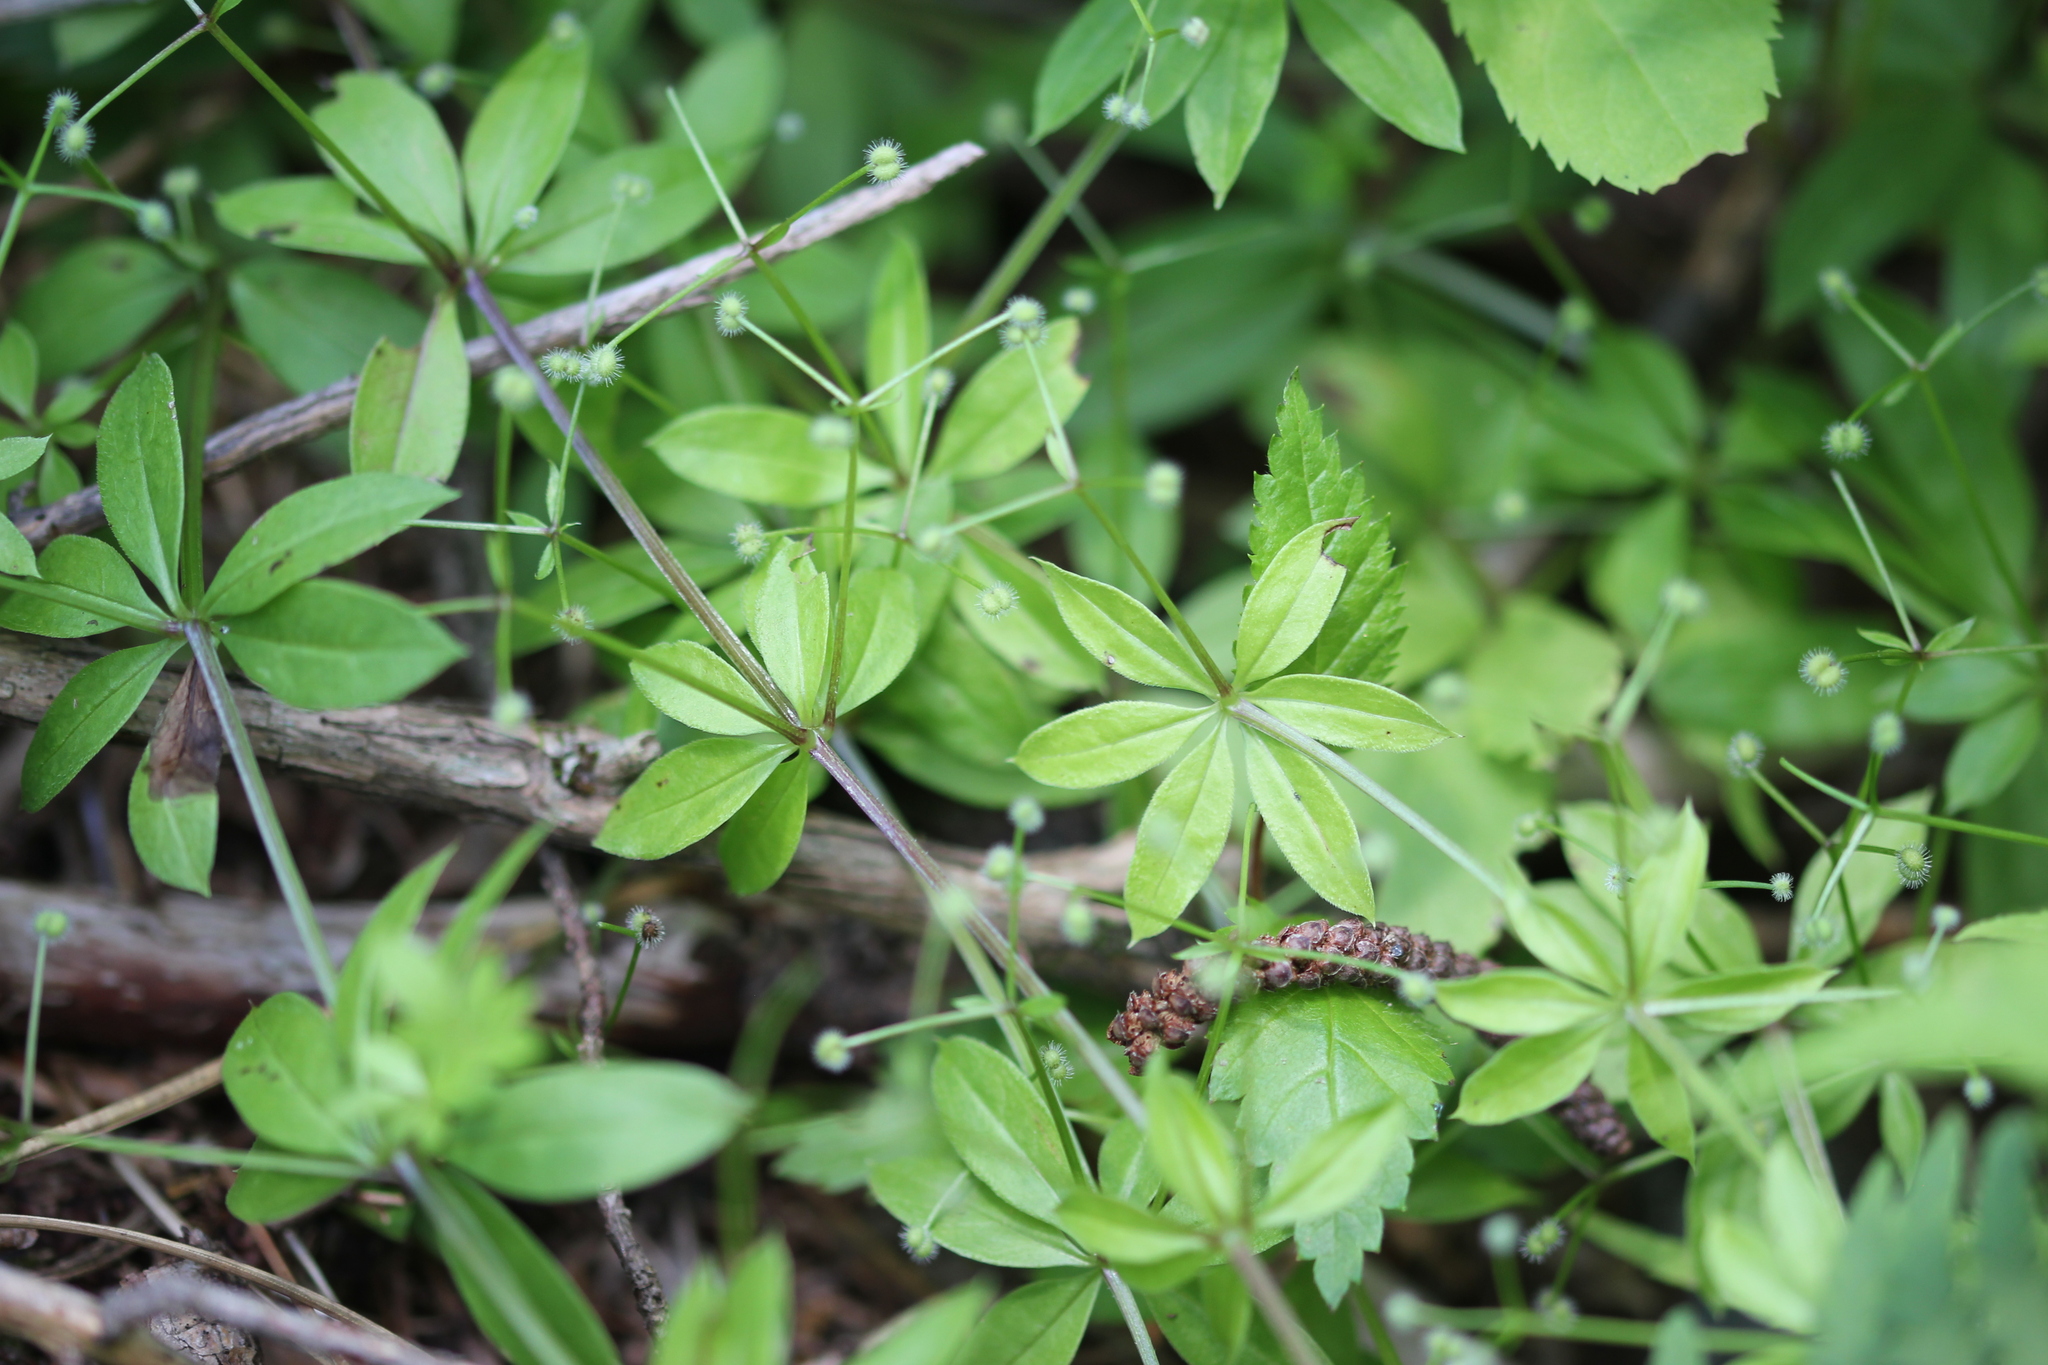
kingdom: Plantae
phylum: Tracheophyta
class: Magnoliopsida
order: Gentianales
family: Rubiaceae
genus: Galium
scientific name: Galium triflorum
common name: Fragrant bedstraw
